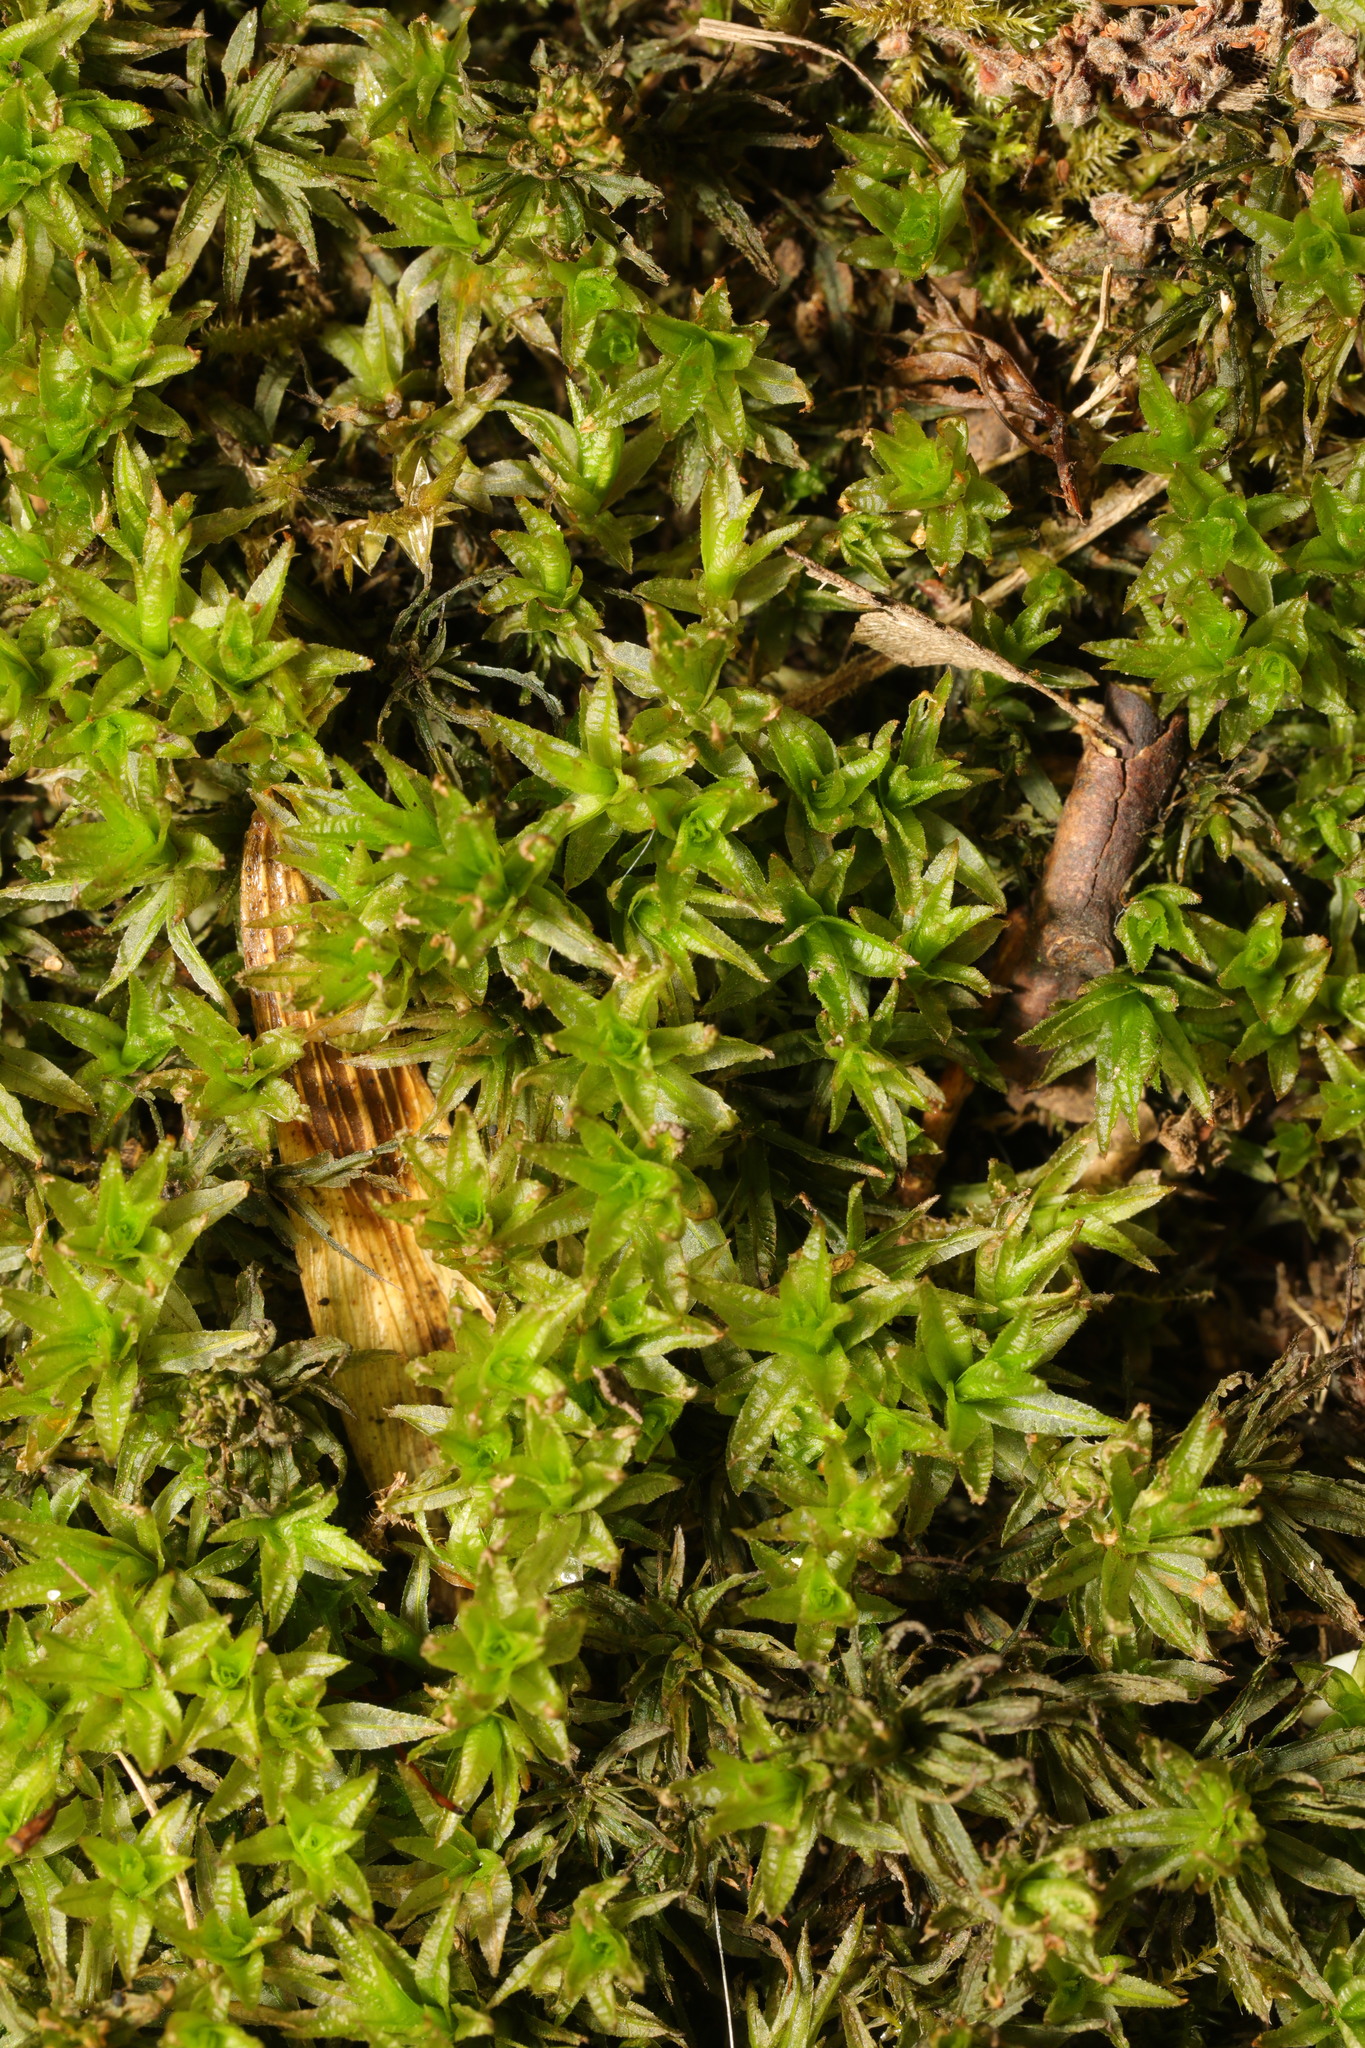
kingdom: Plantae
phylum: Bryophyta
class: Polytrichopsida
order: Polytrichales
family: Polytrichaceae
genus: Atrichum
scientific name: Atrichum undulatum
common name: Common smoothcap
